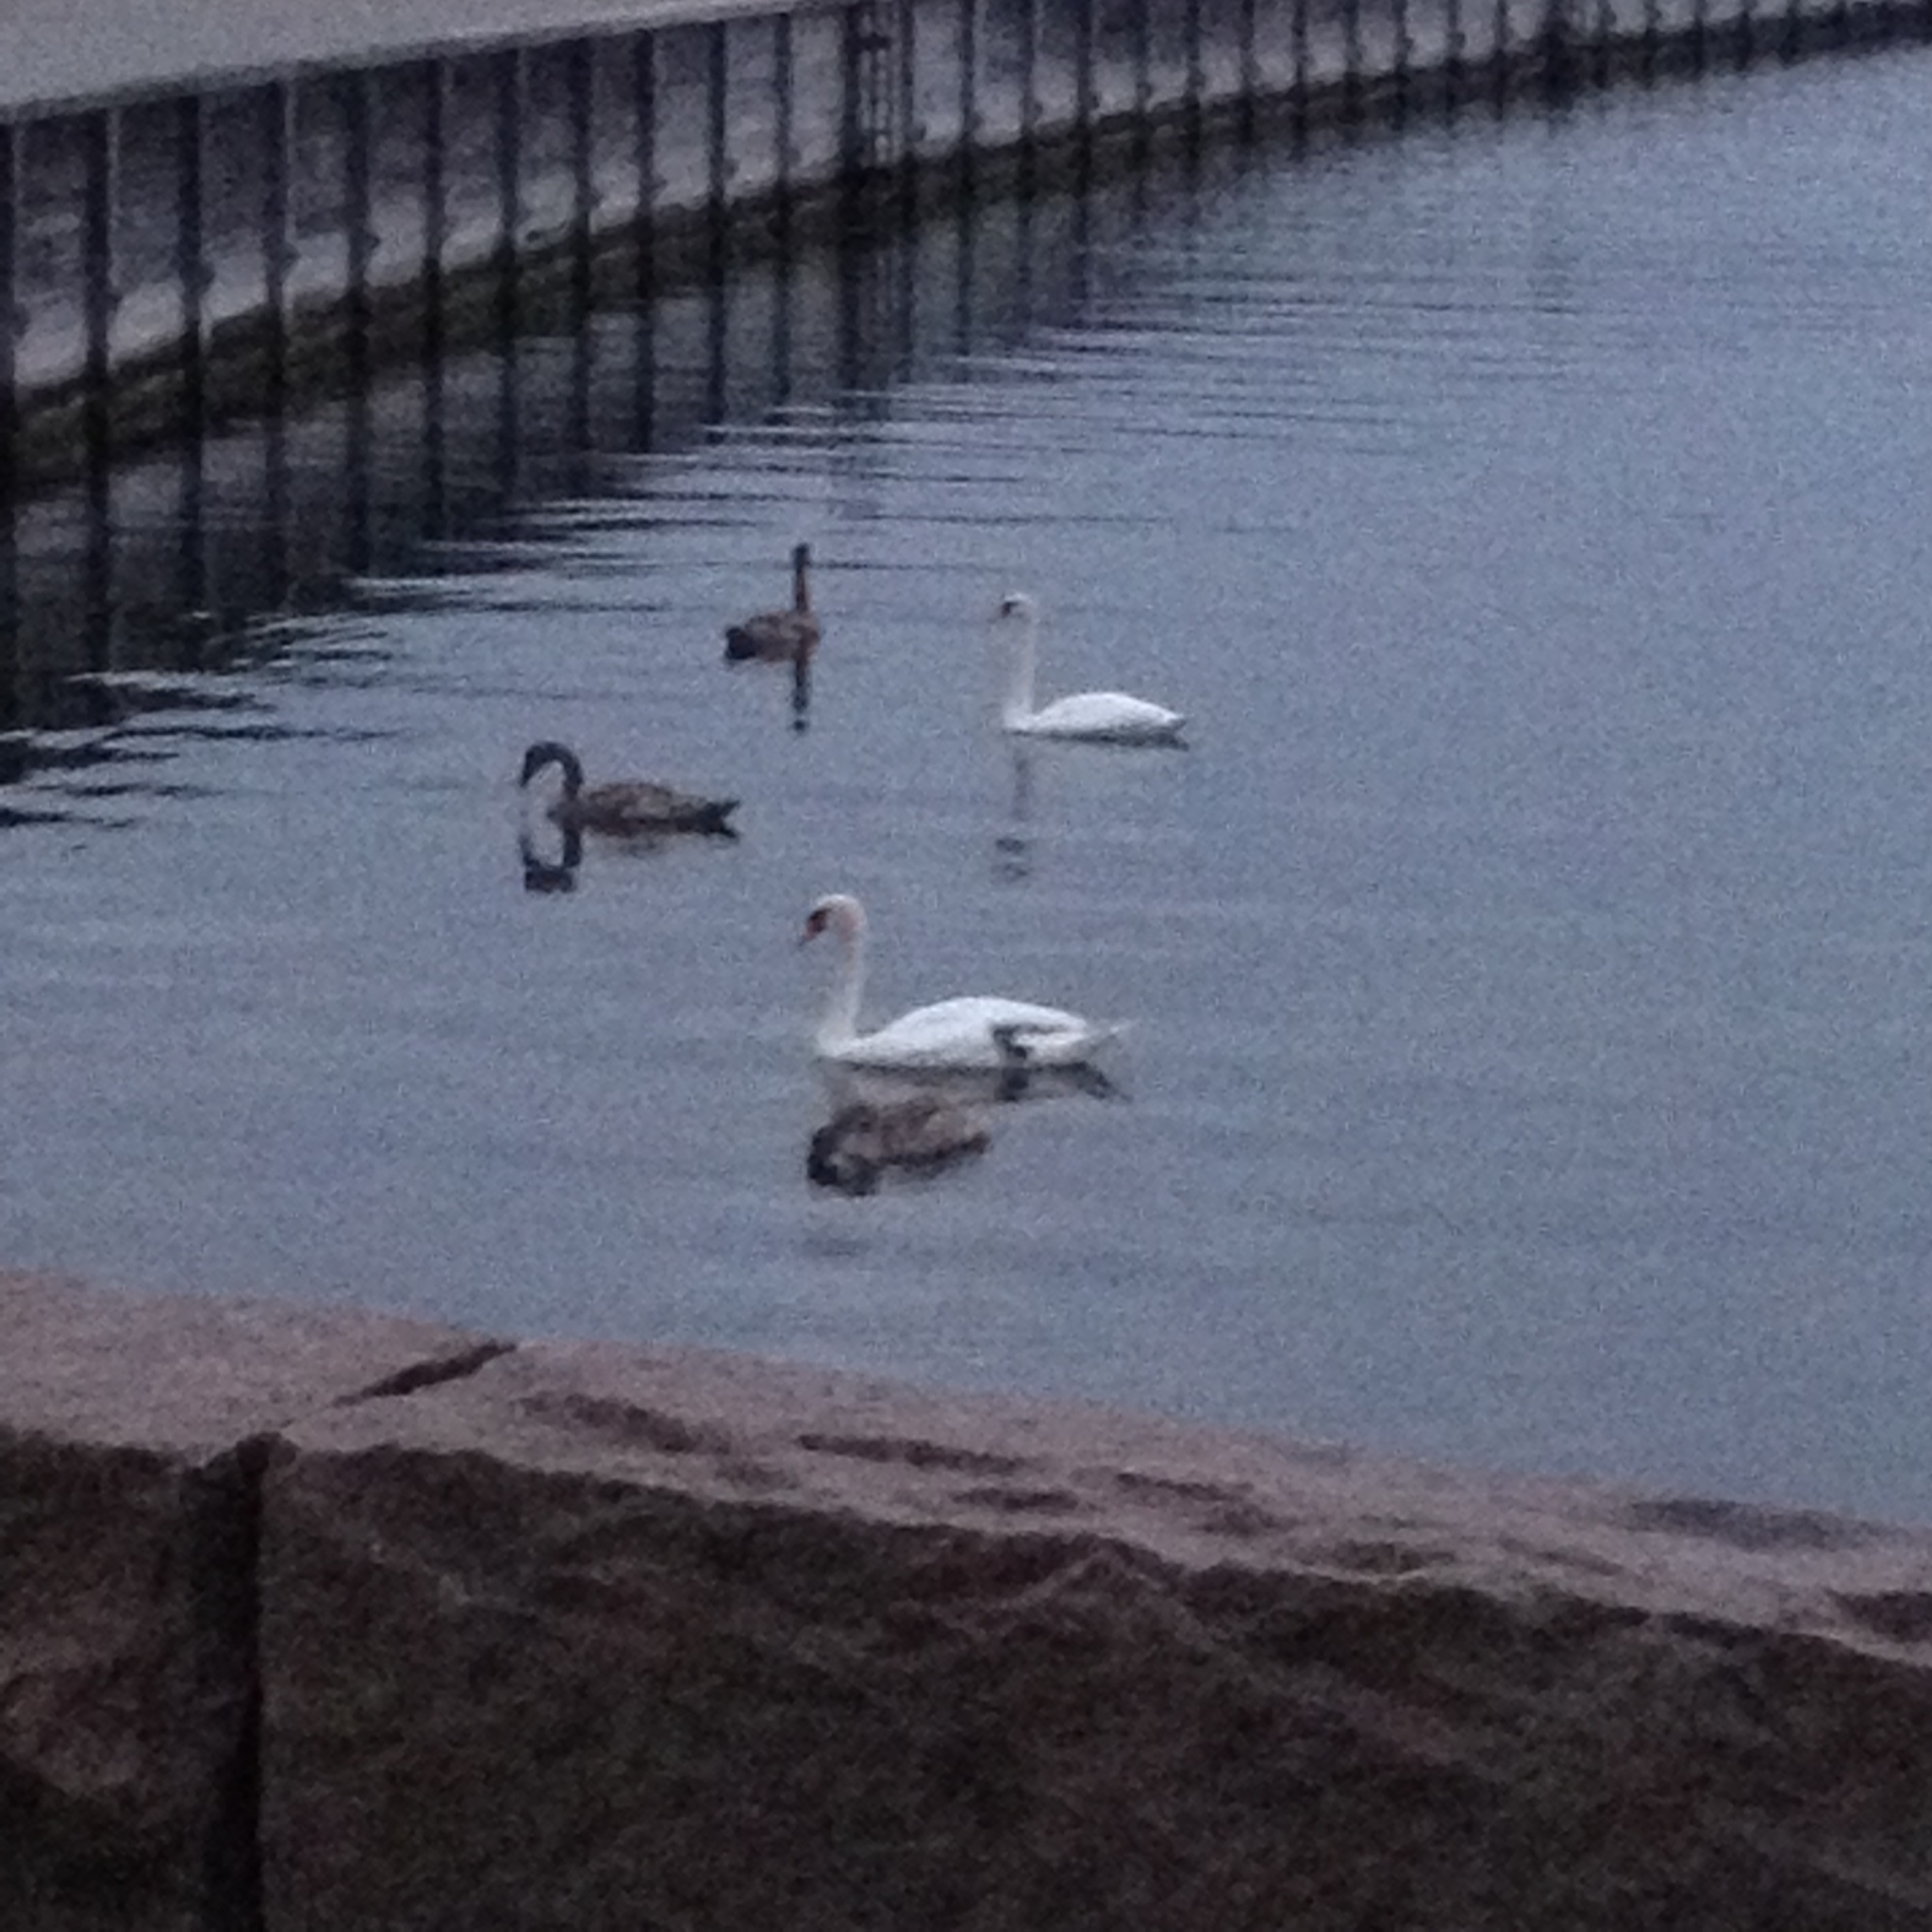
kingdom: Animalia
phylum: Chordata
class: Aves
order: Anseriformes
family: Anatidae
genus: Cygnus
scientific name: Cygnus olor
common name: Mute swan
